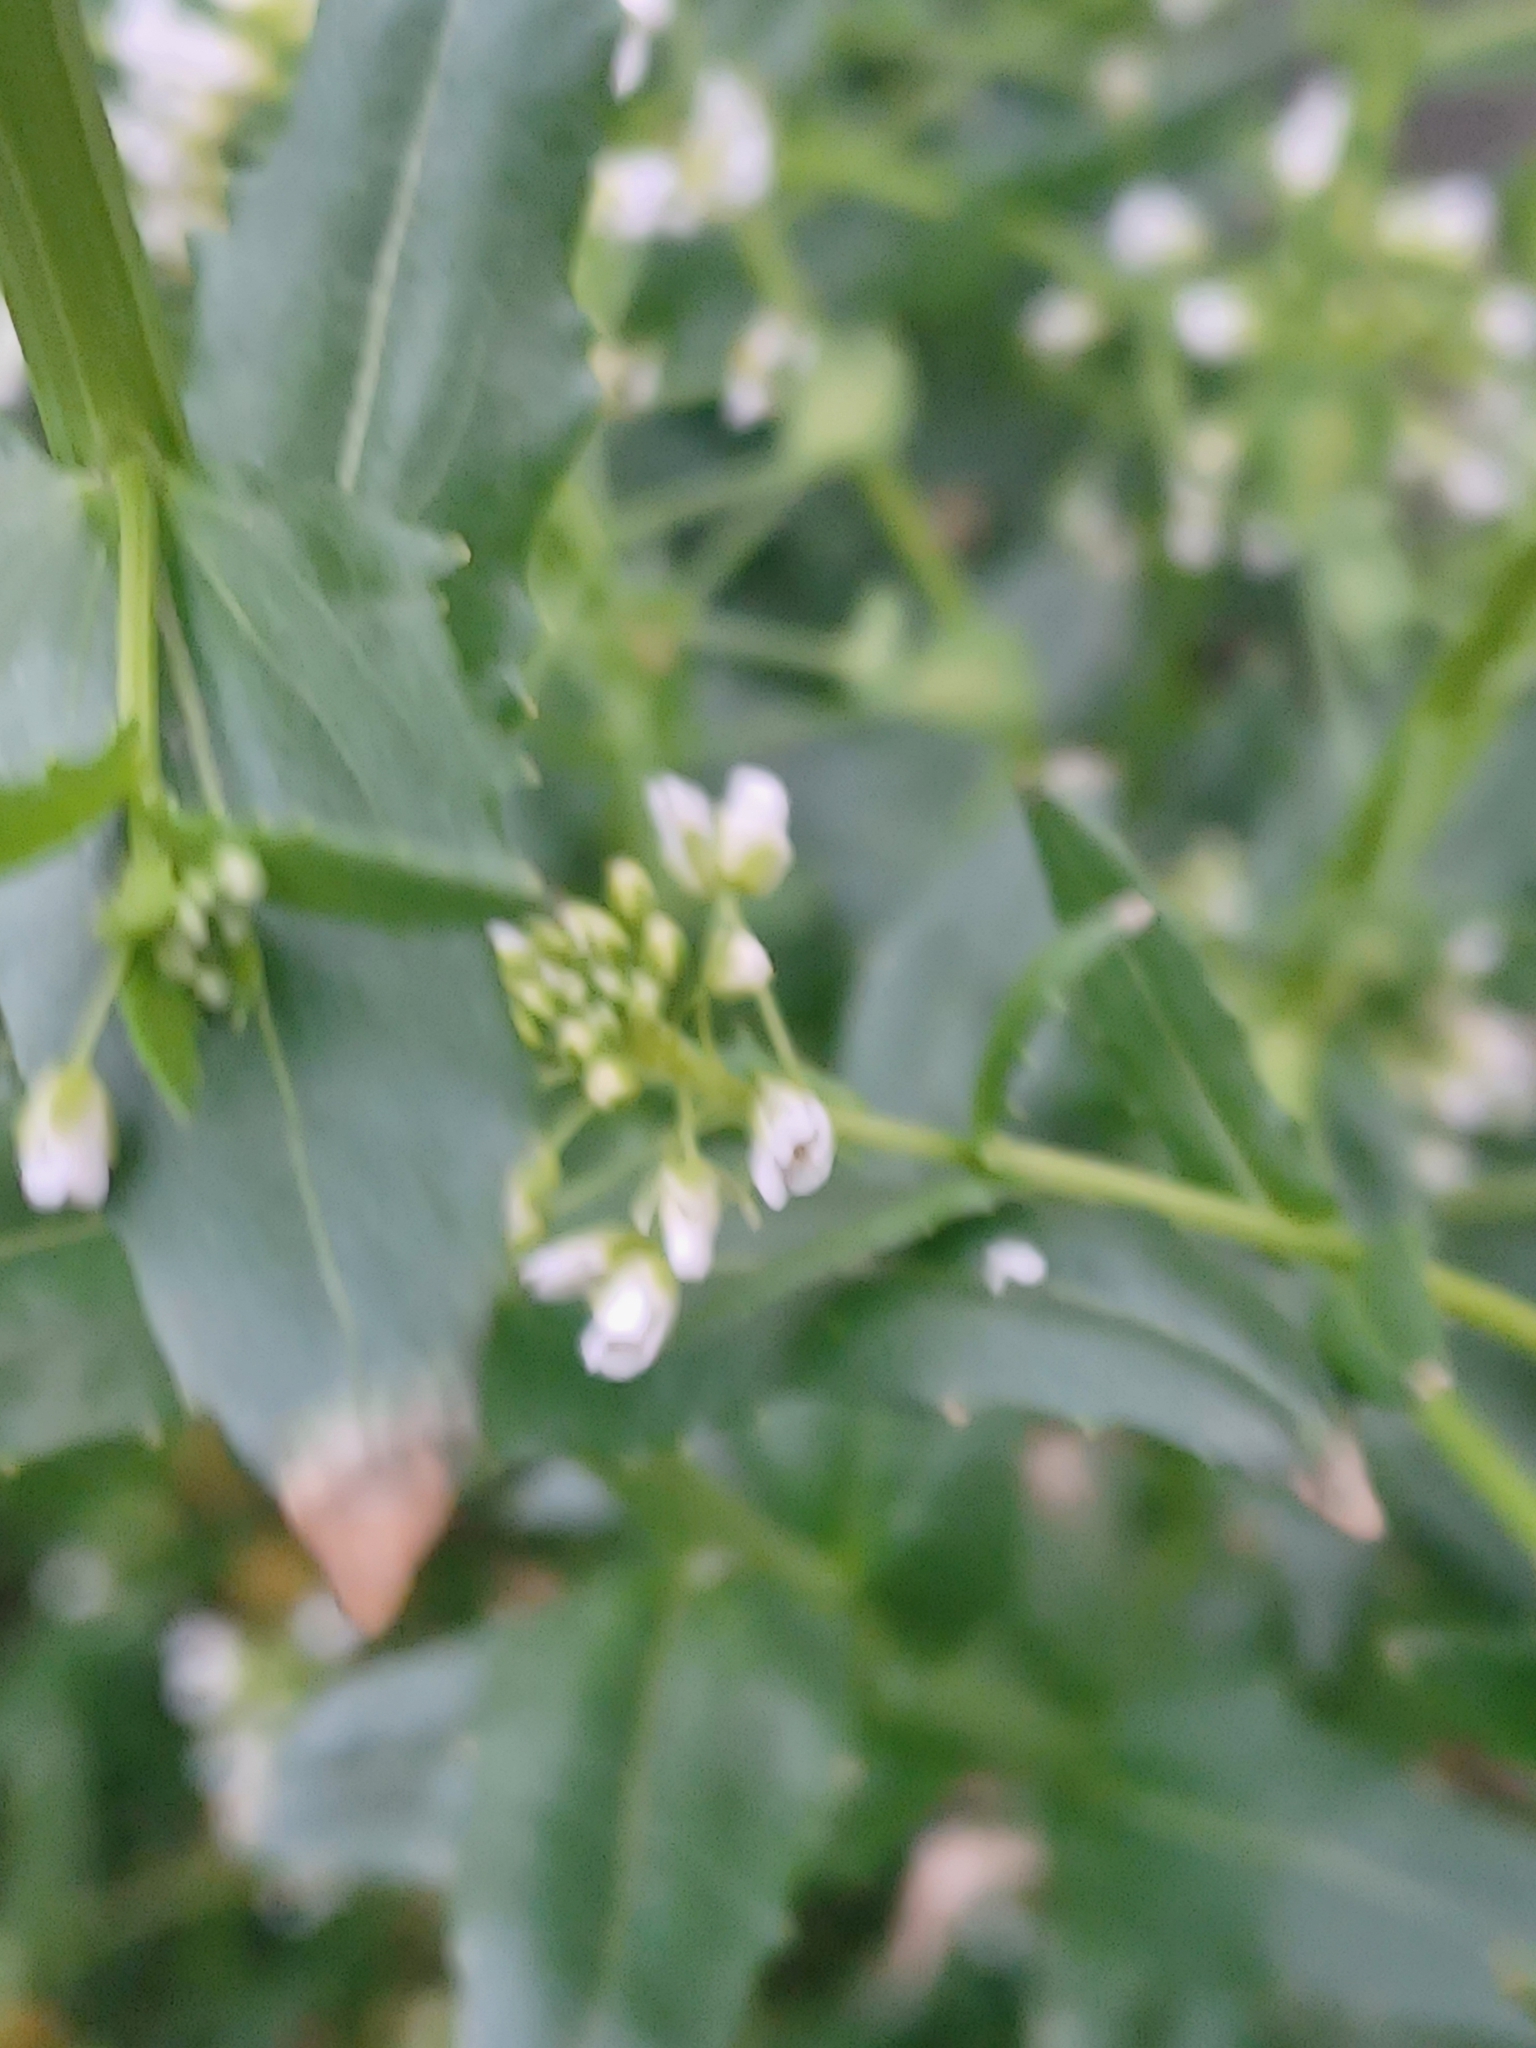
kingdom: Plantae
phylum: Tracheophyta
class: Magnoliopsida
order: Brassicales
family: Brassicaceae
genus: Thlaspi
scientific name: Thlaspi arvense
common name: Field pennycress
